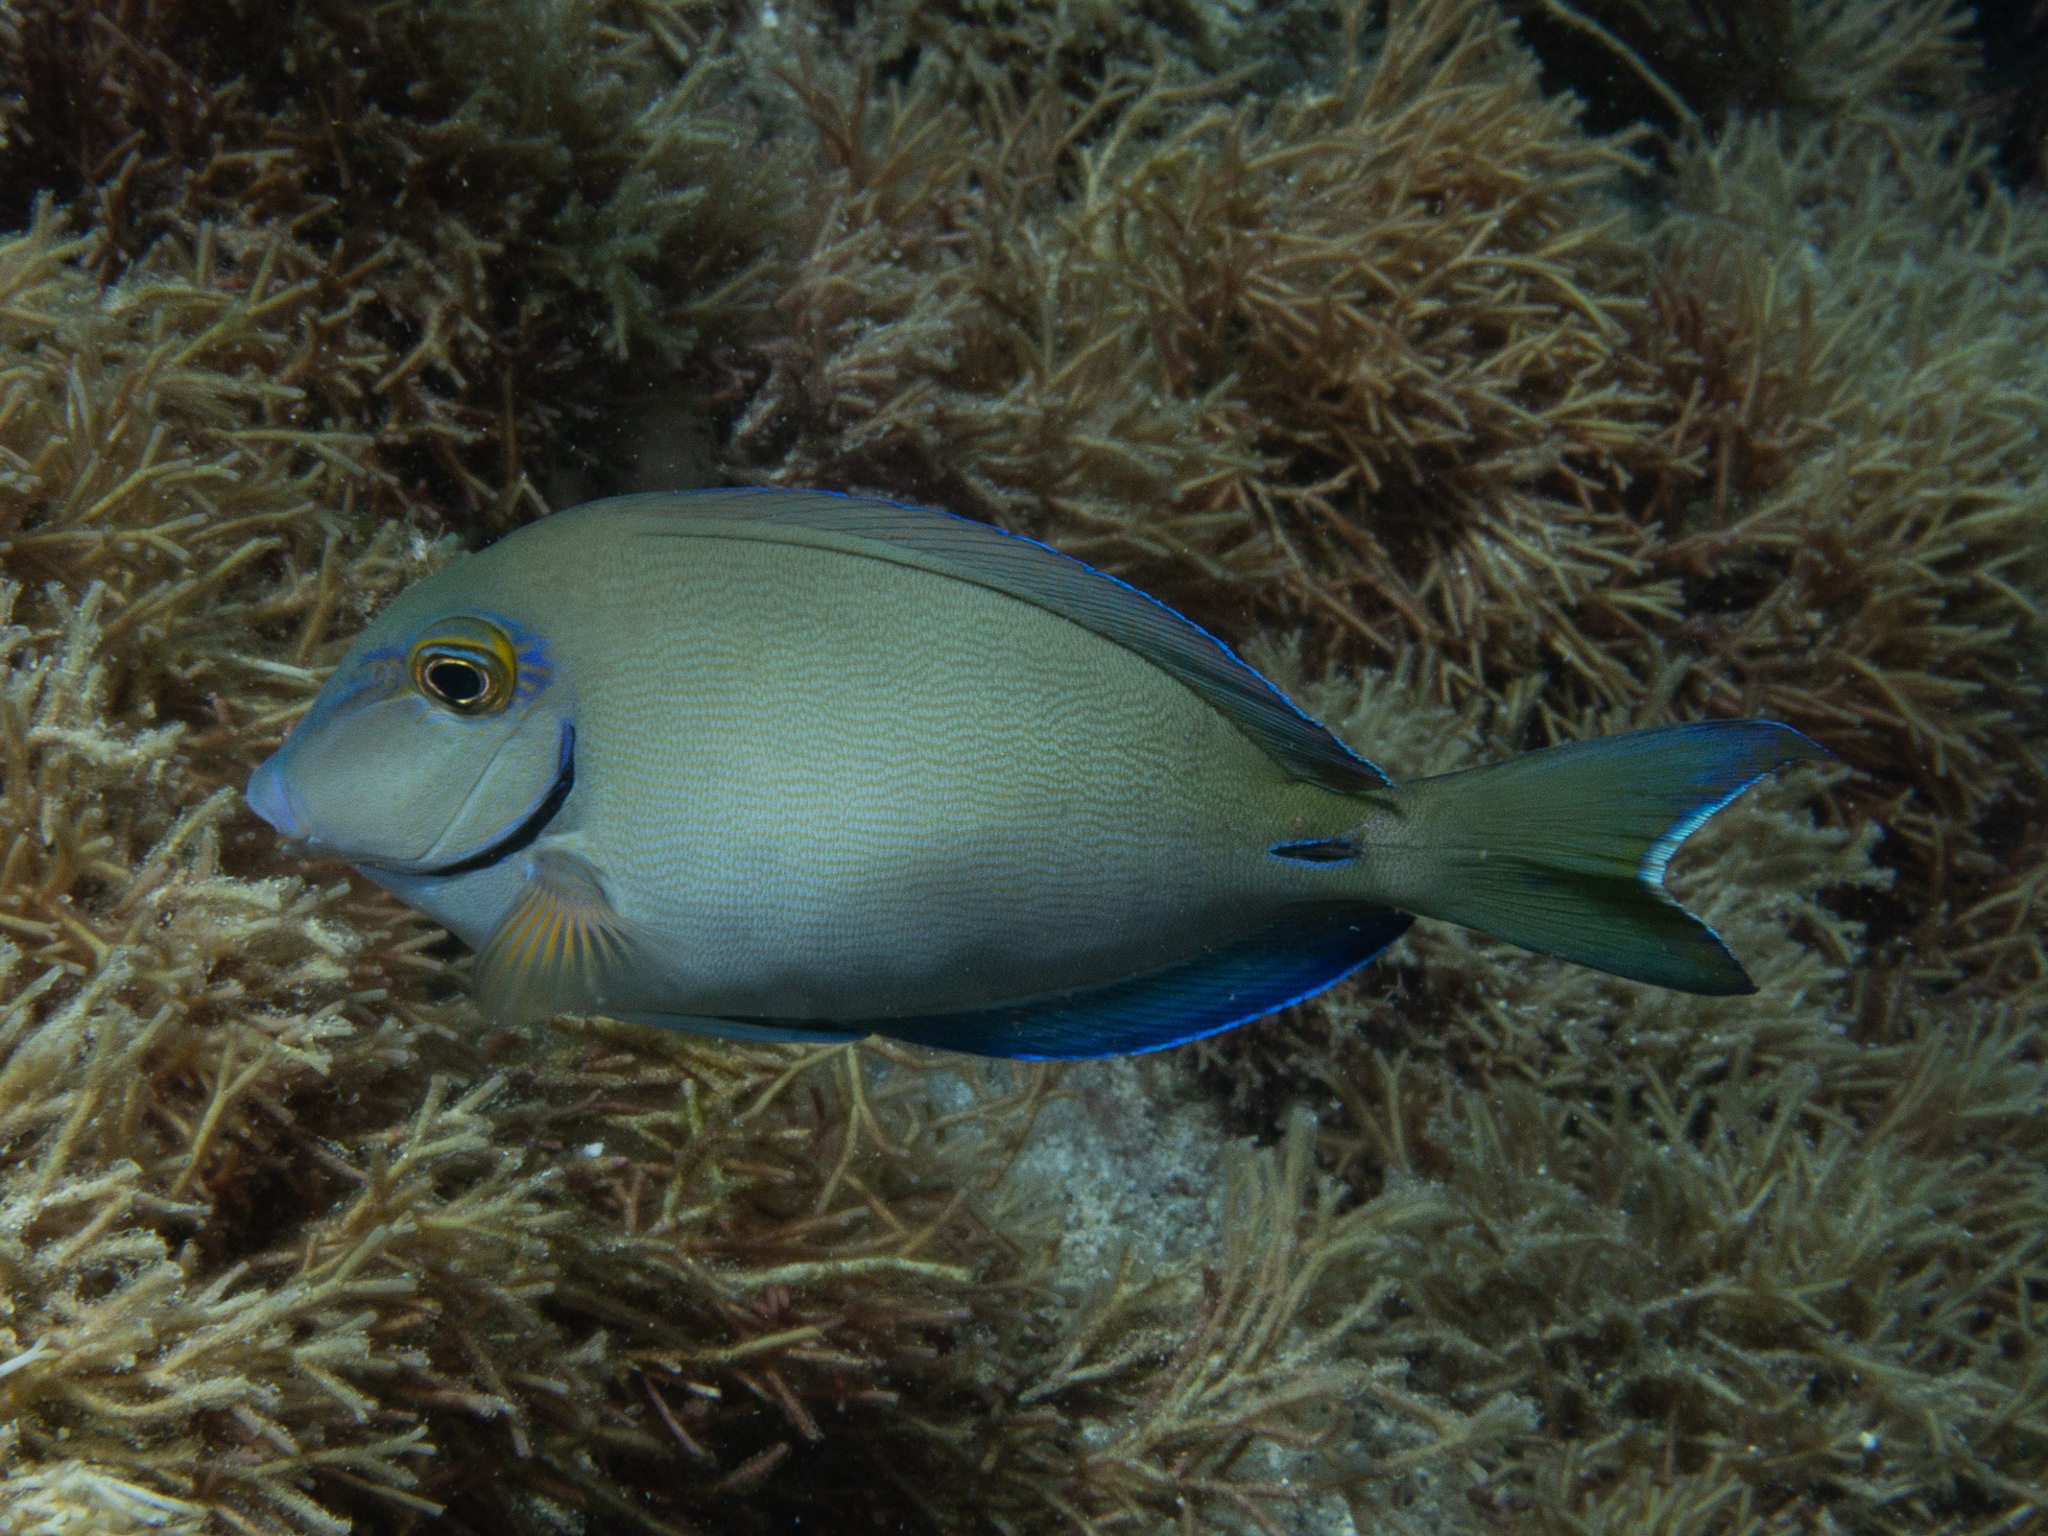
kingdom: Animalia
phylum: Chordata
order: Perciformes
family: Acanthuridae
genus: Acanthurus
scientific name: Acanthurus bahianus
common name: Ocean surgeon
